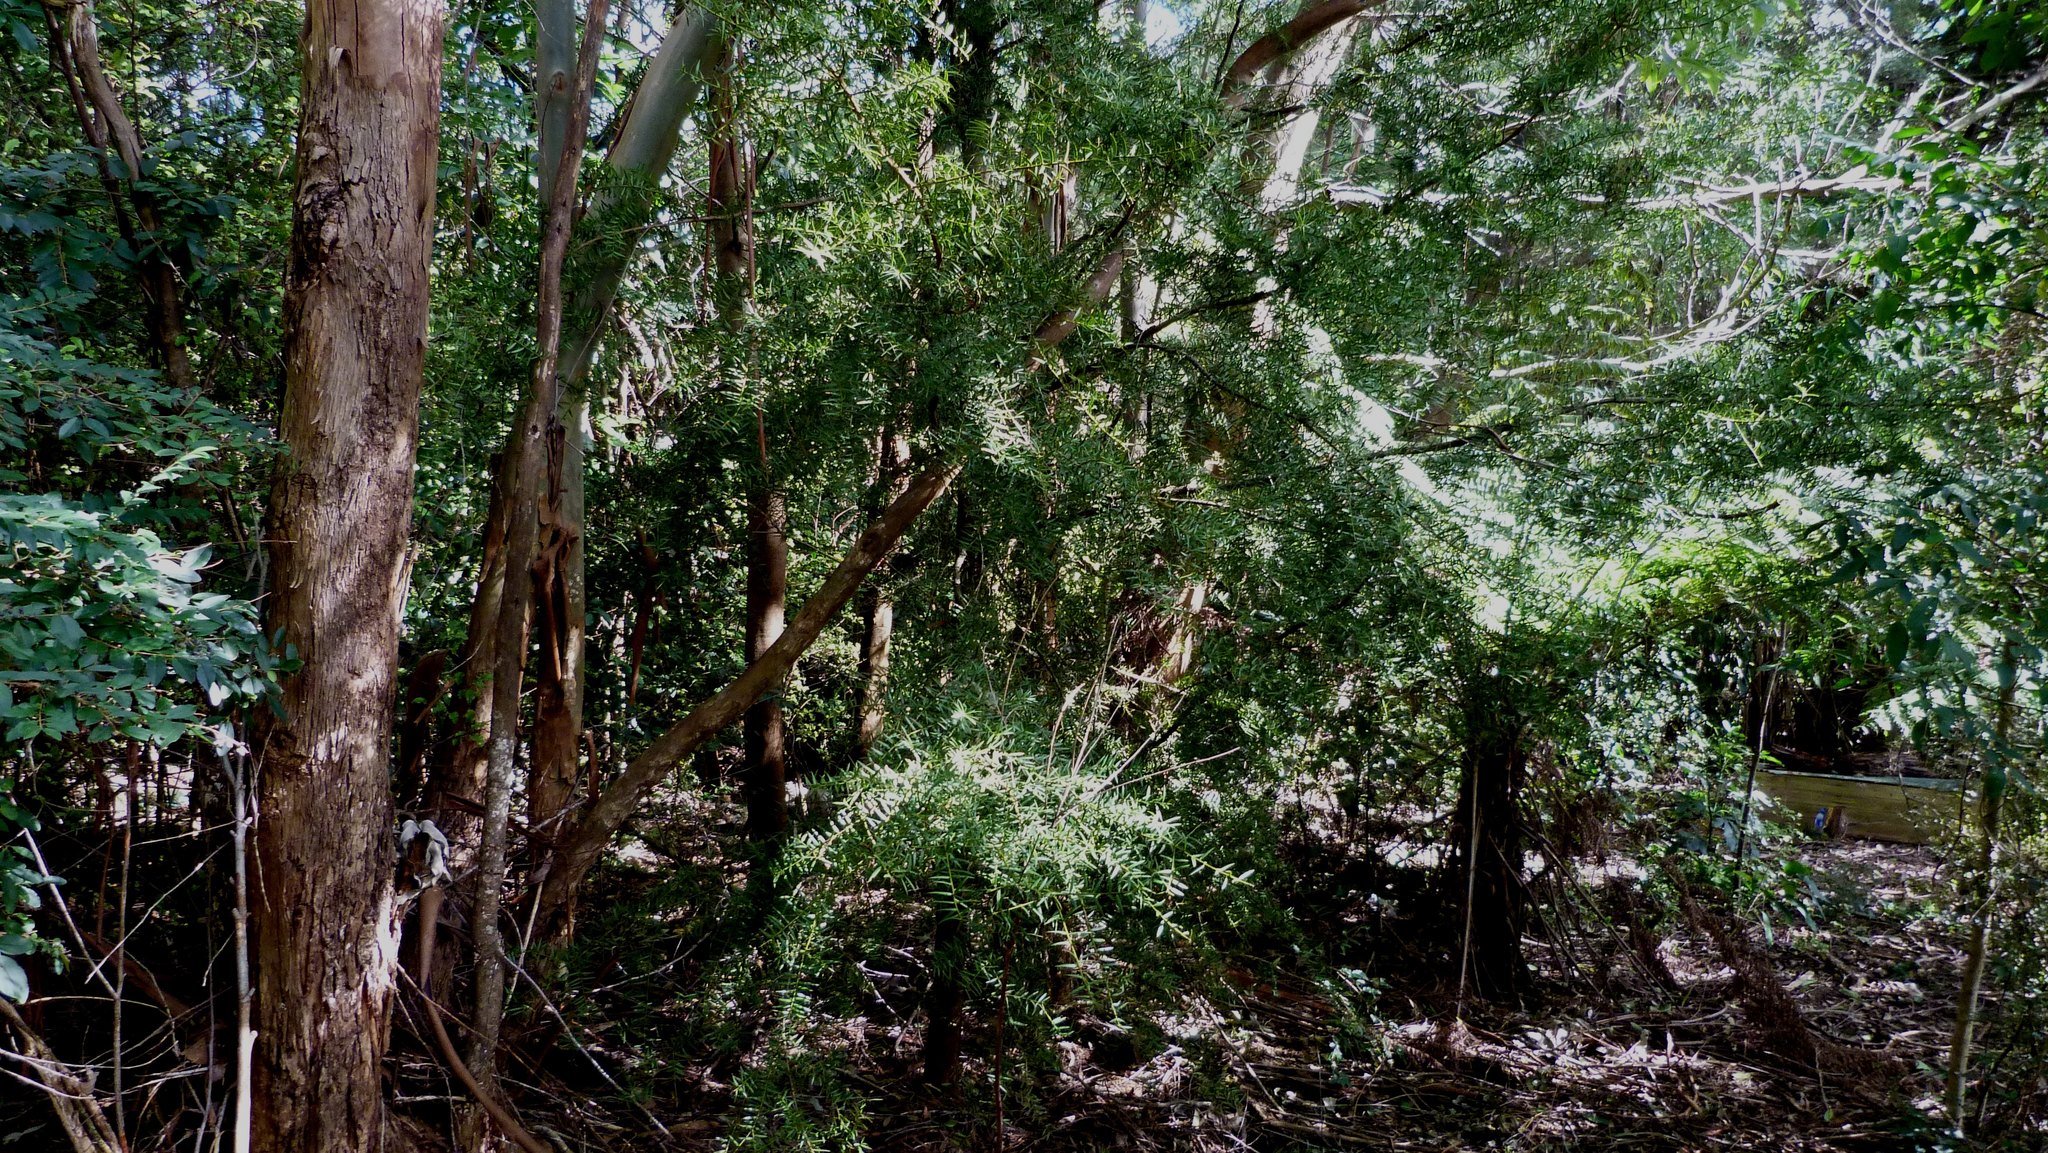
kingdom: Plantae
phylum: Tracheophyta
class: Pinopsida
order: Pinales
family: Podocarpaceae
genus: Podocarpus
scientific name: Podocarpus totara
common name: Totara
